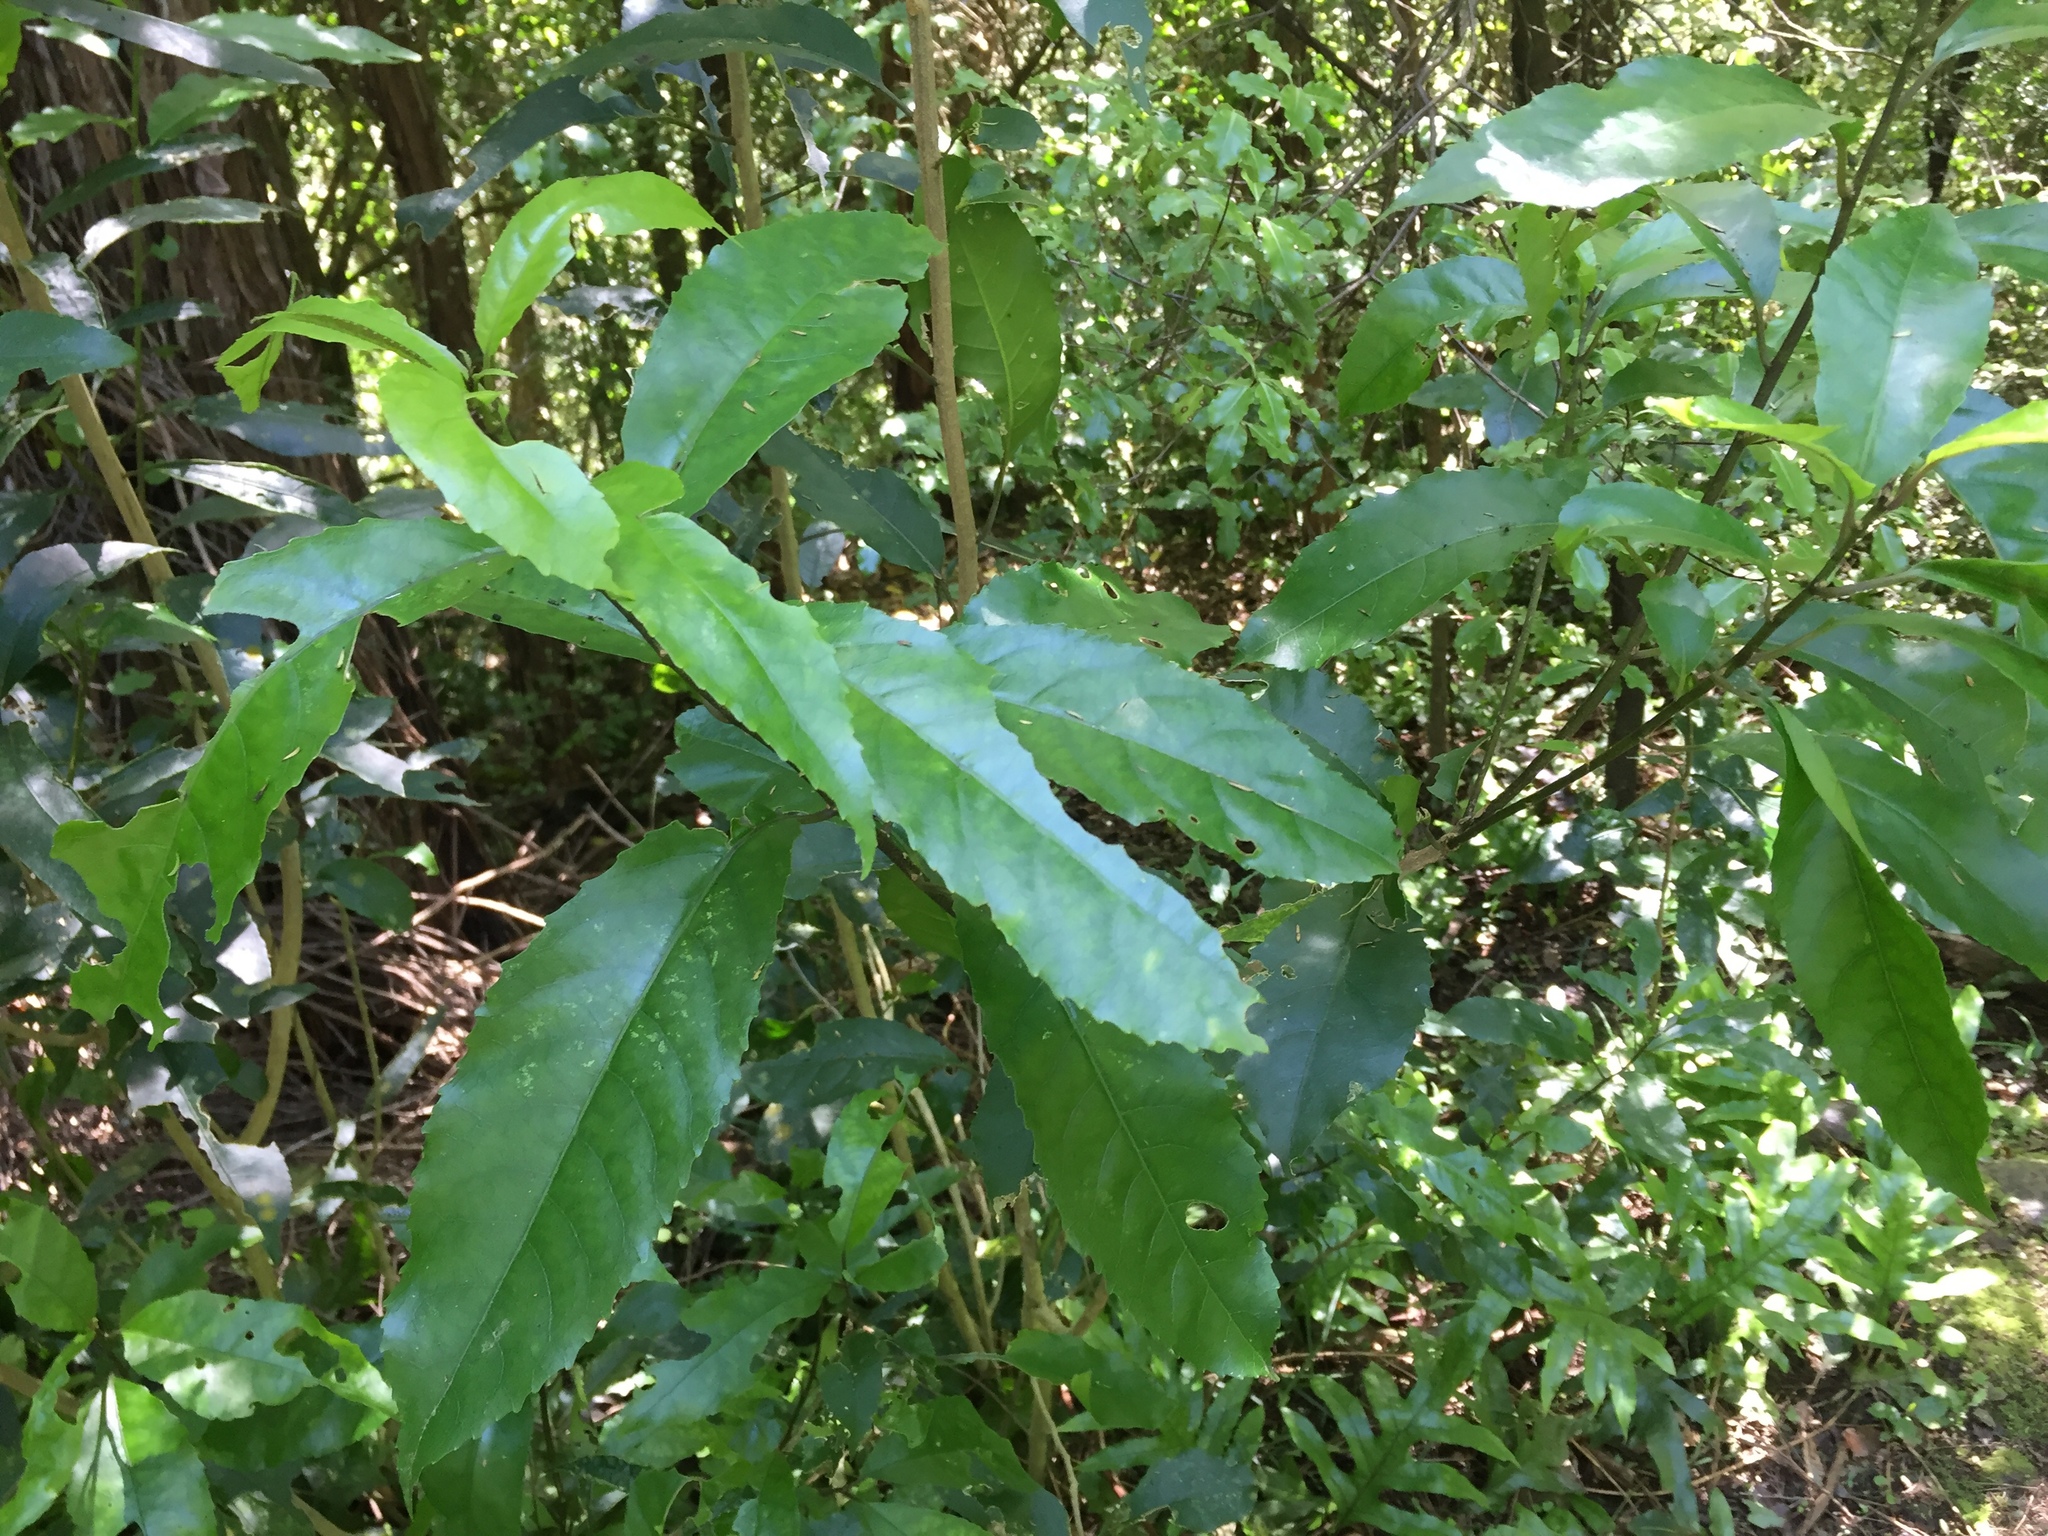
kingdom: Plantae
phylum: Tracheophyta
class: Magnoliopsida
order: Malpighiales
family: Violaceae
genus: Melicytus
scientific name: Melicytus ramiflorus
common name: Mahoe
